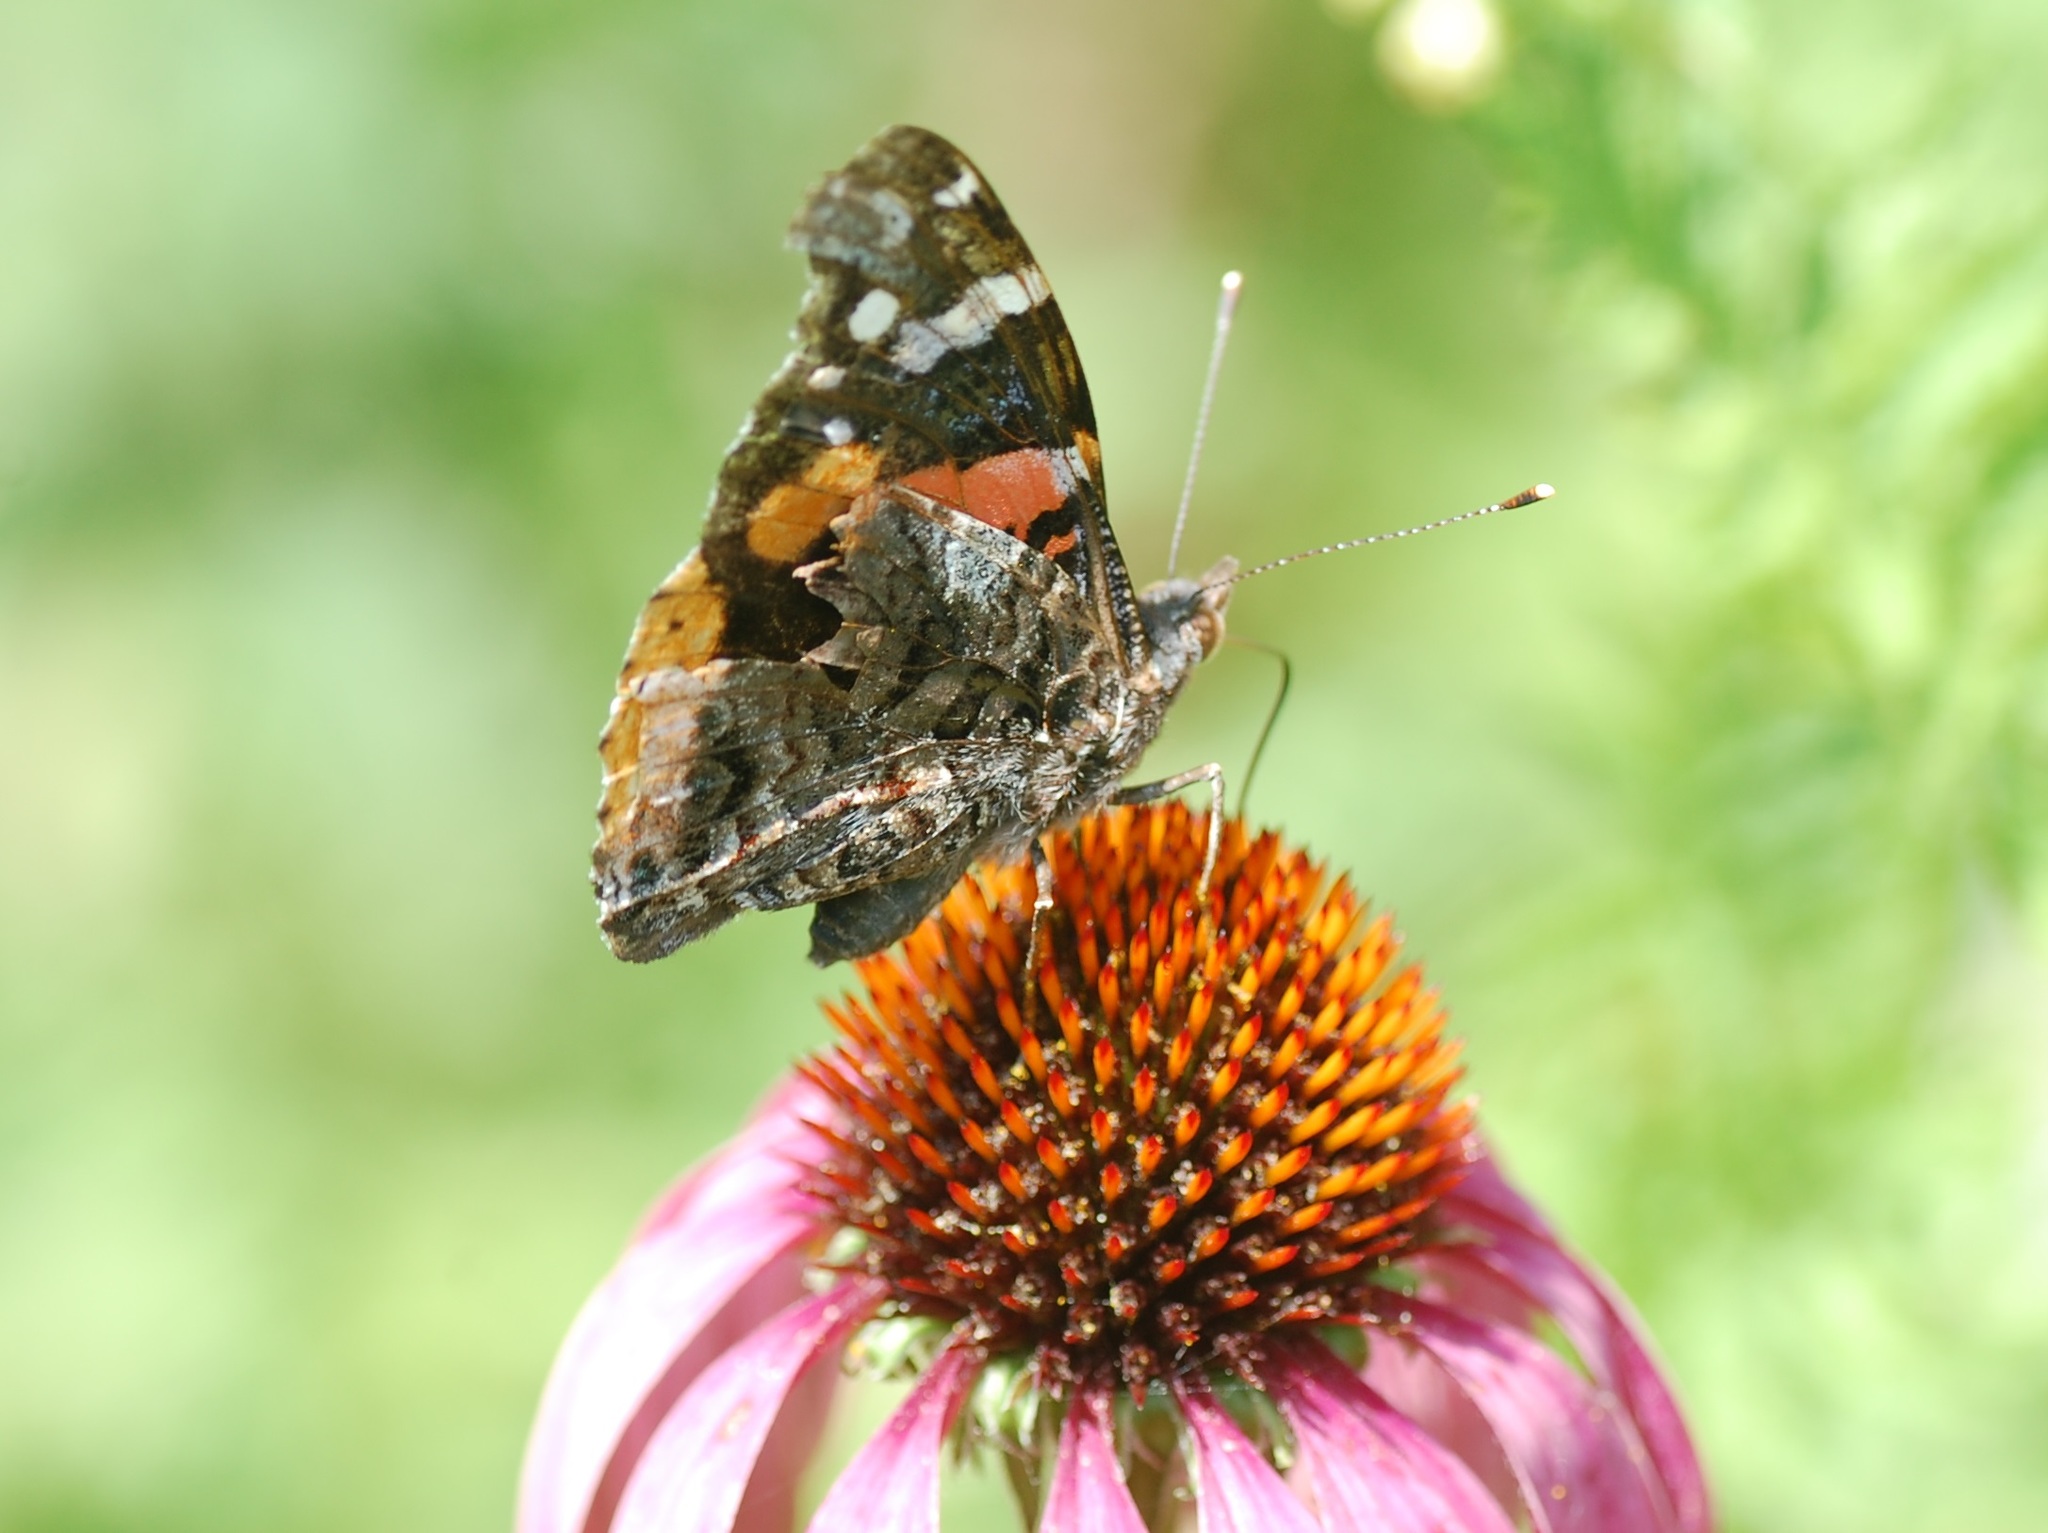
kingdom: Animalia
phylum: Arthropoda
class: Insecta
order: Lepidoptera
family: Nymphalidae
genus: Vanessa
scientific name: Vanessa atalanta
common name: Red admiral
